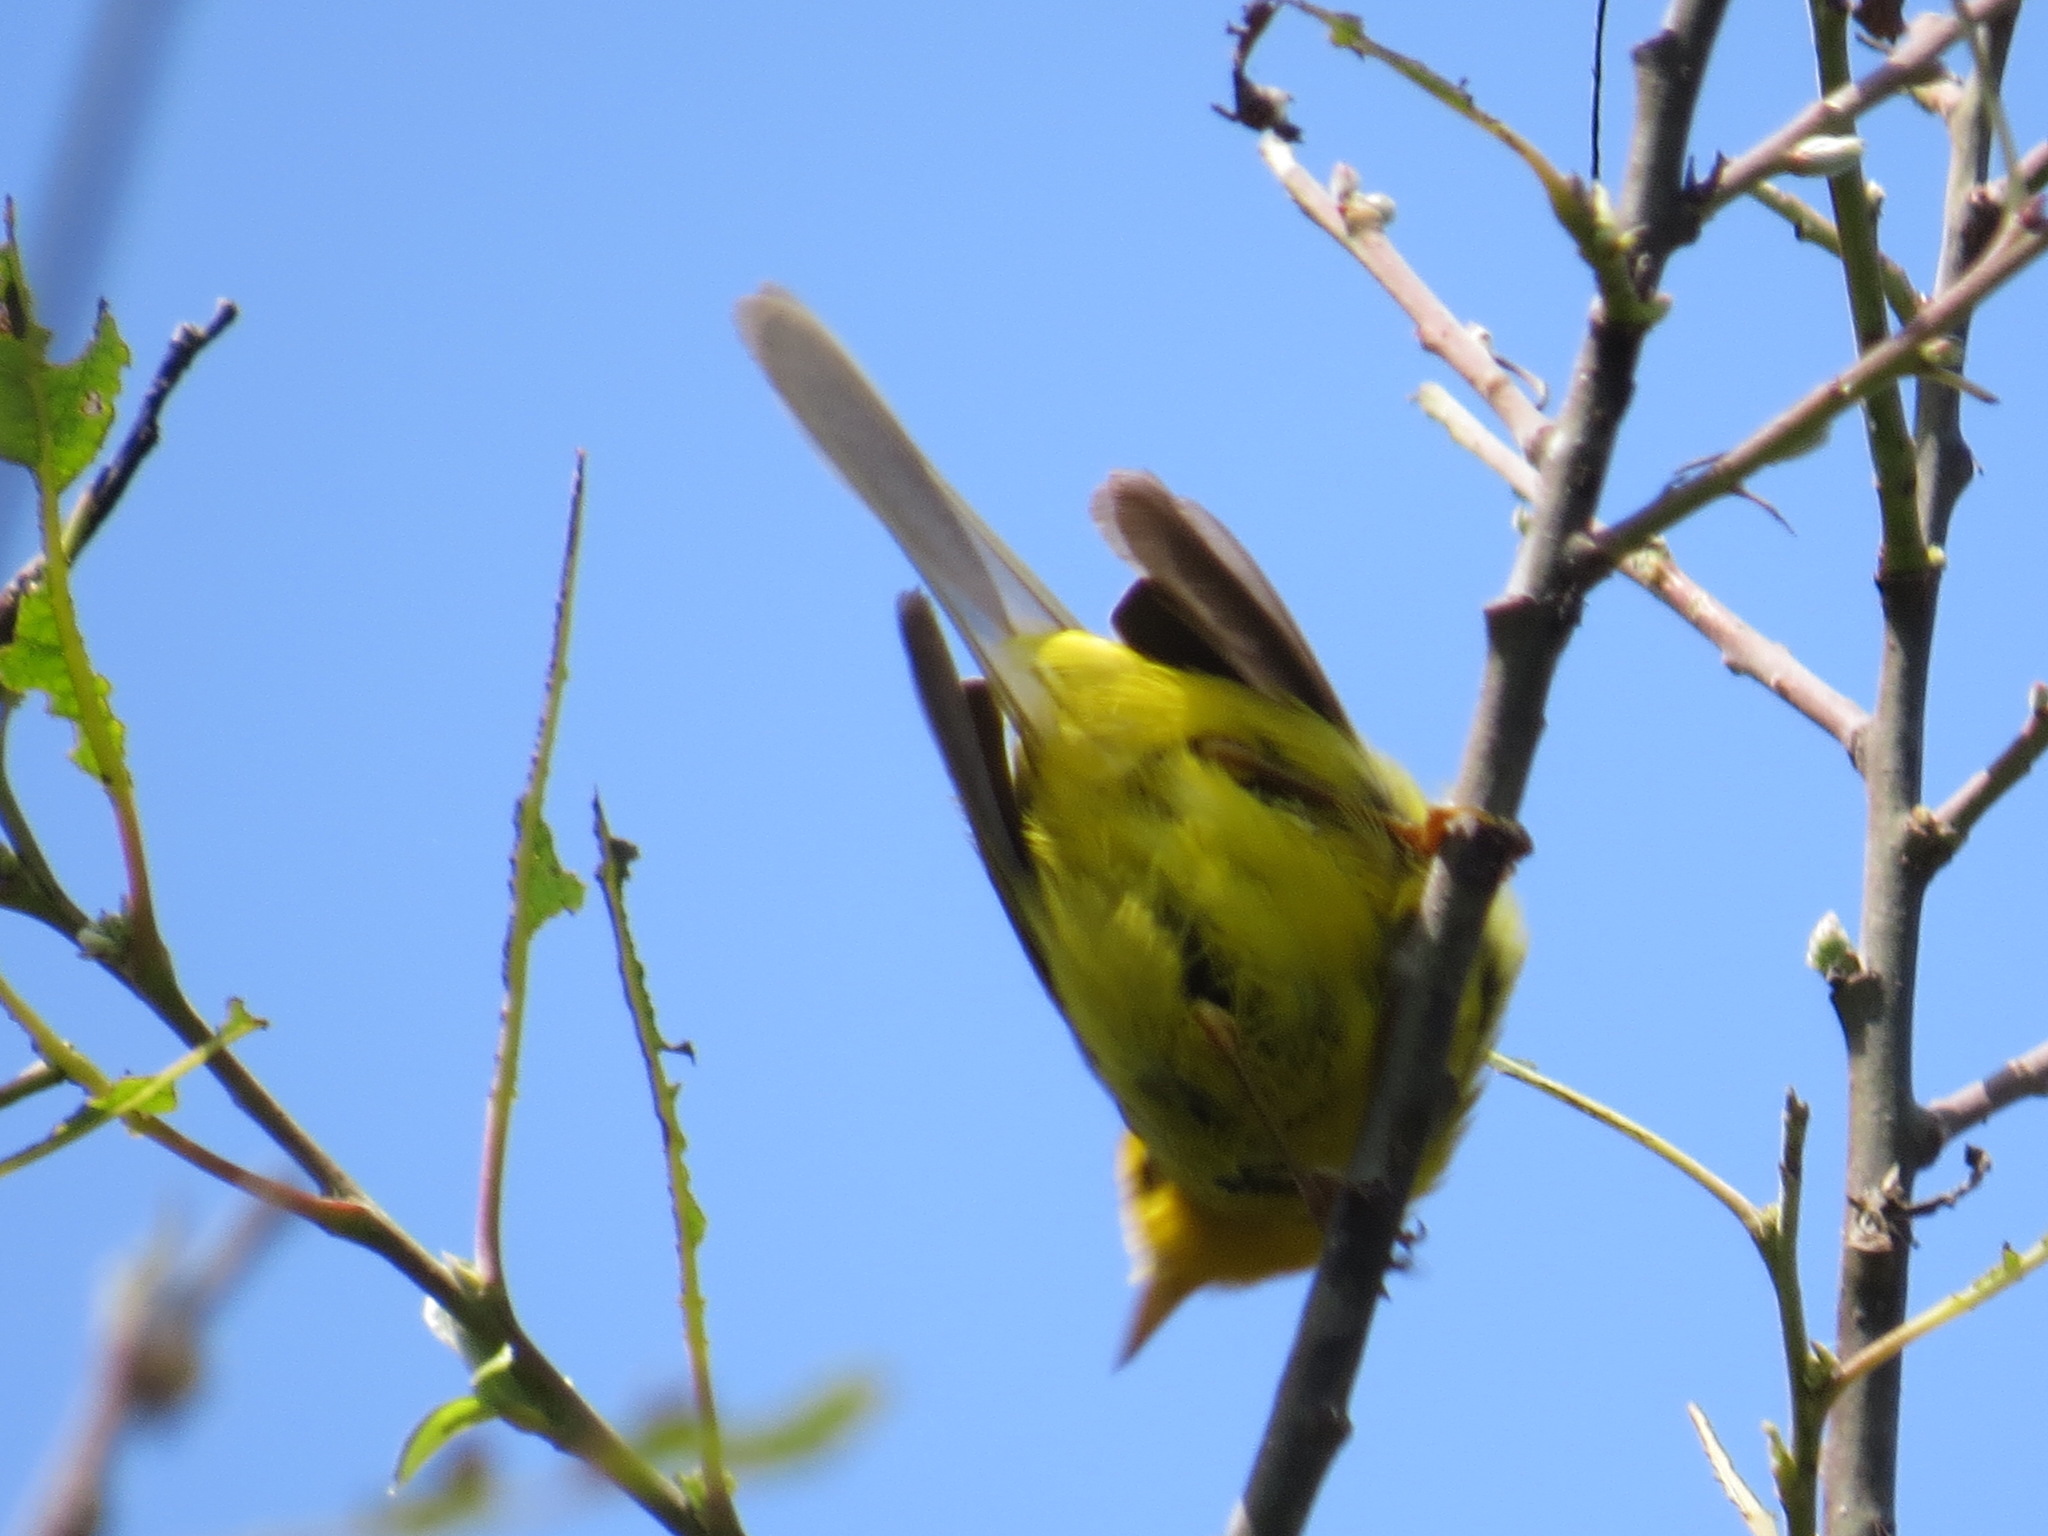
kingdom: Animalia
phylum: Chordata
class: Aves
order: Passeriformes
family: Parulidae
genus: Cardellina
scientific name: Cardellina pusilla
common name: Wilson's warbler
